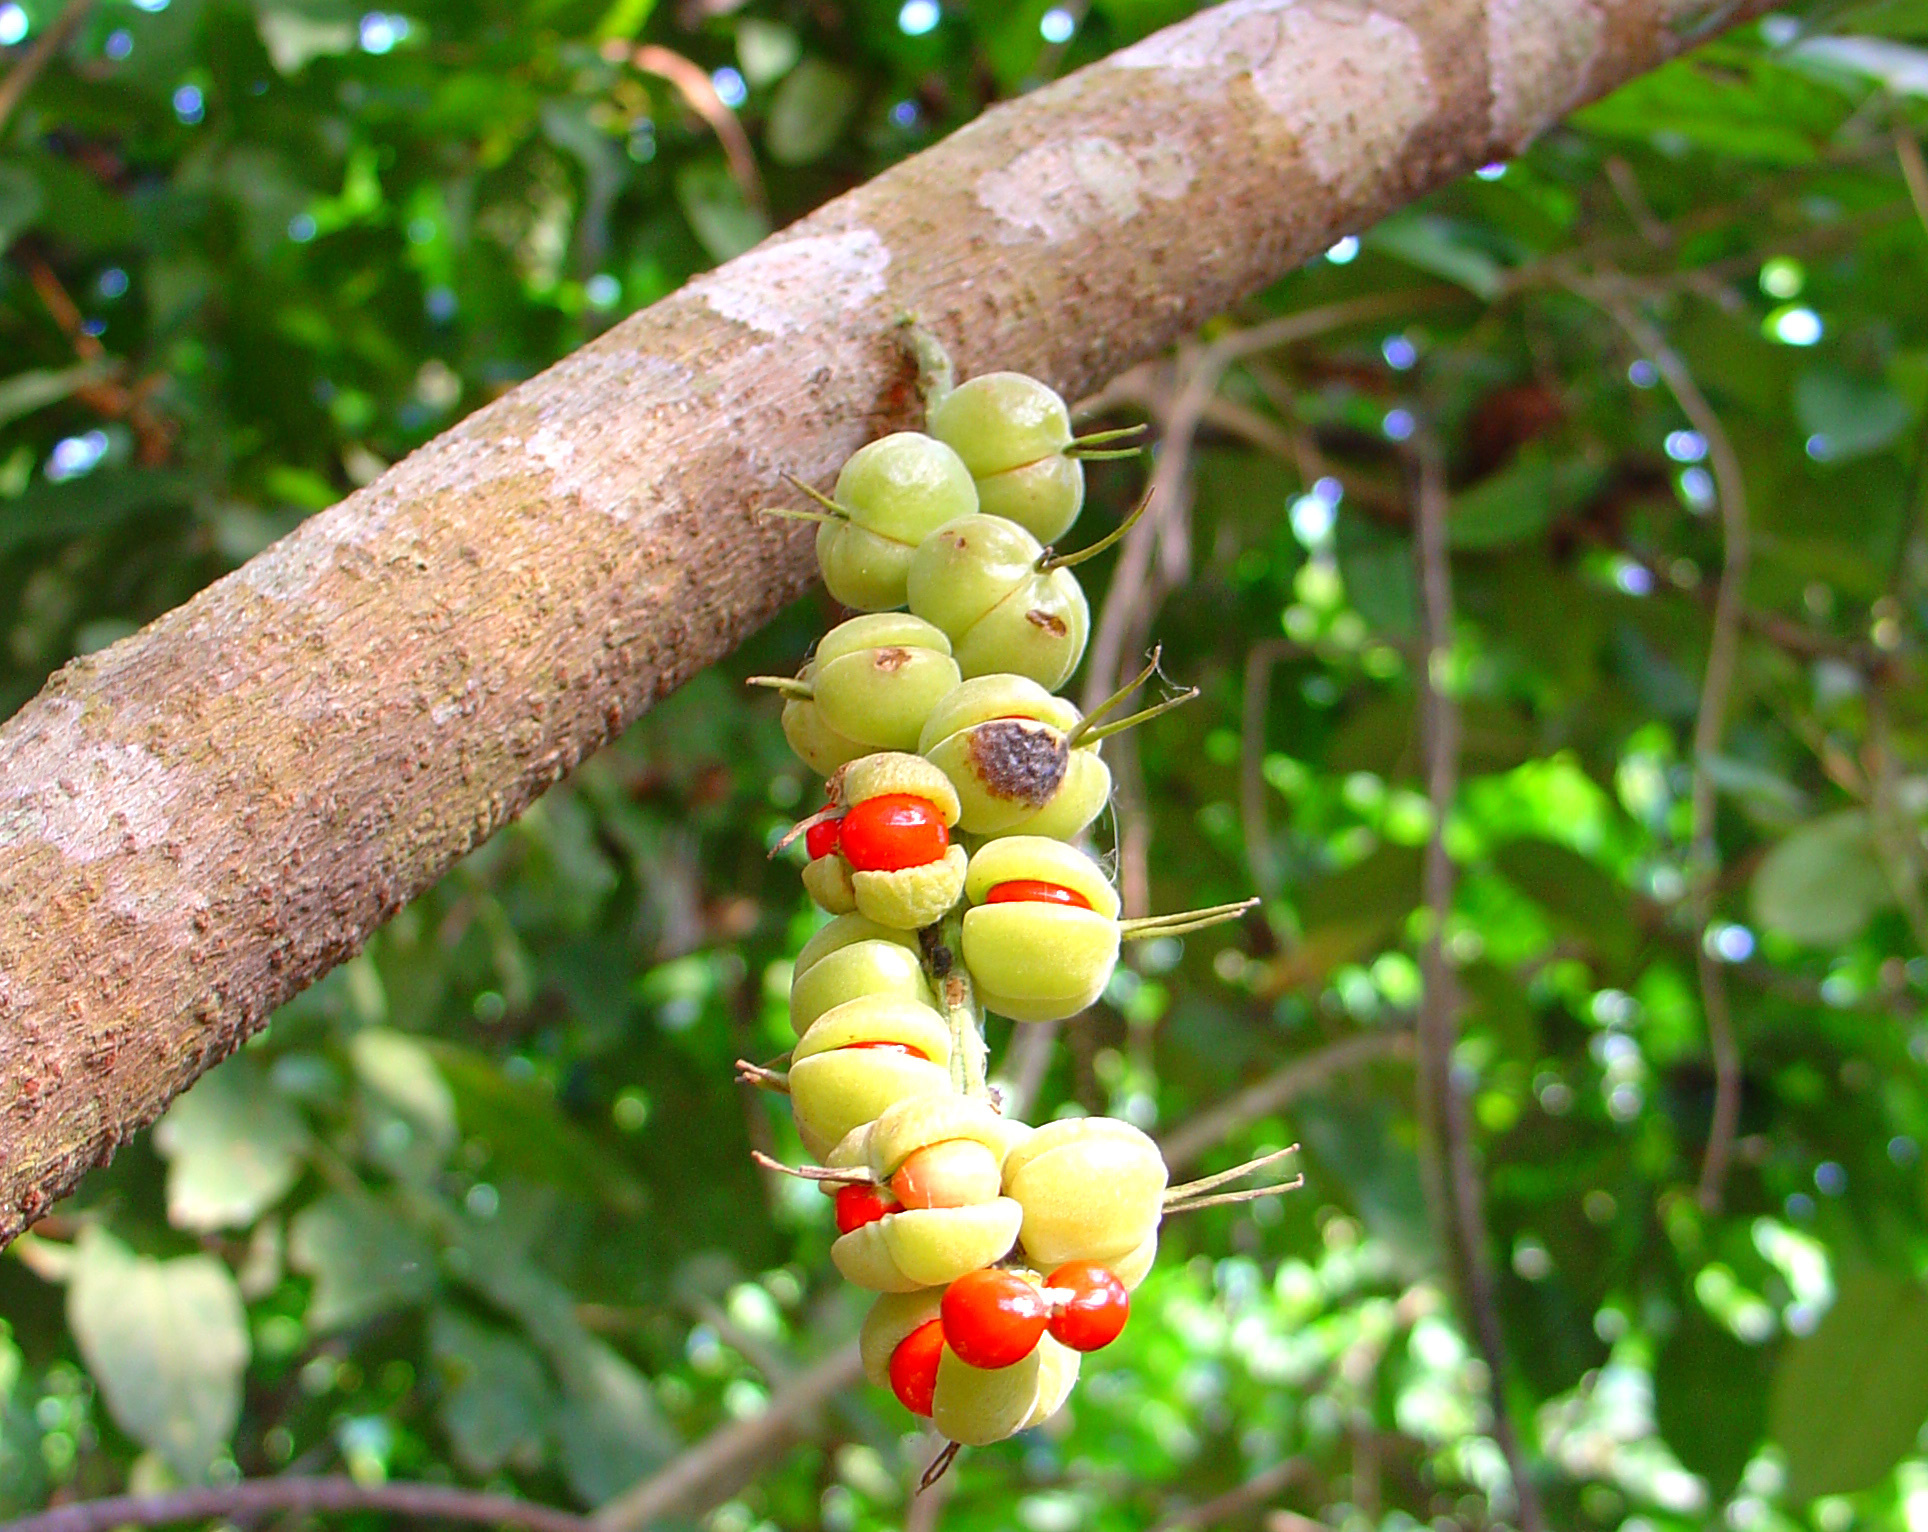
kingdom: Plantae
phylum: Tracheophyta
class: Magnoliopsida
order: Malpighiales
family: Euphorbiaceae
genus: Alchornea
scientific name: Alchornea cordifolia
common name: Christmasbush
